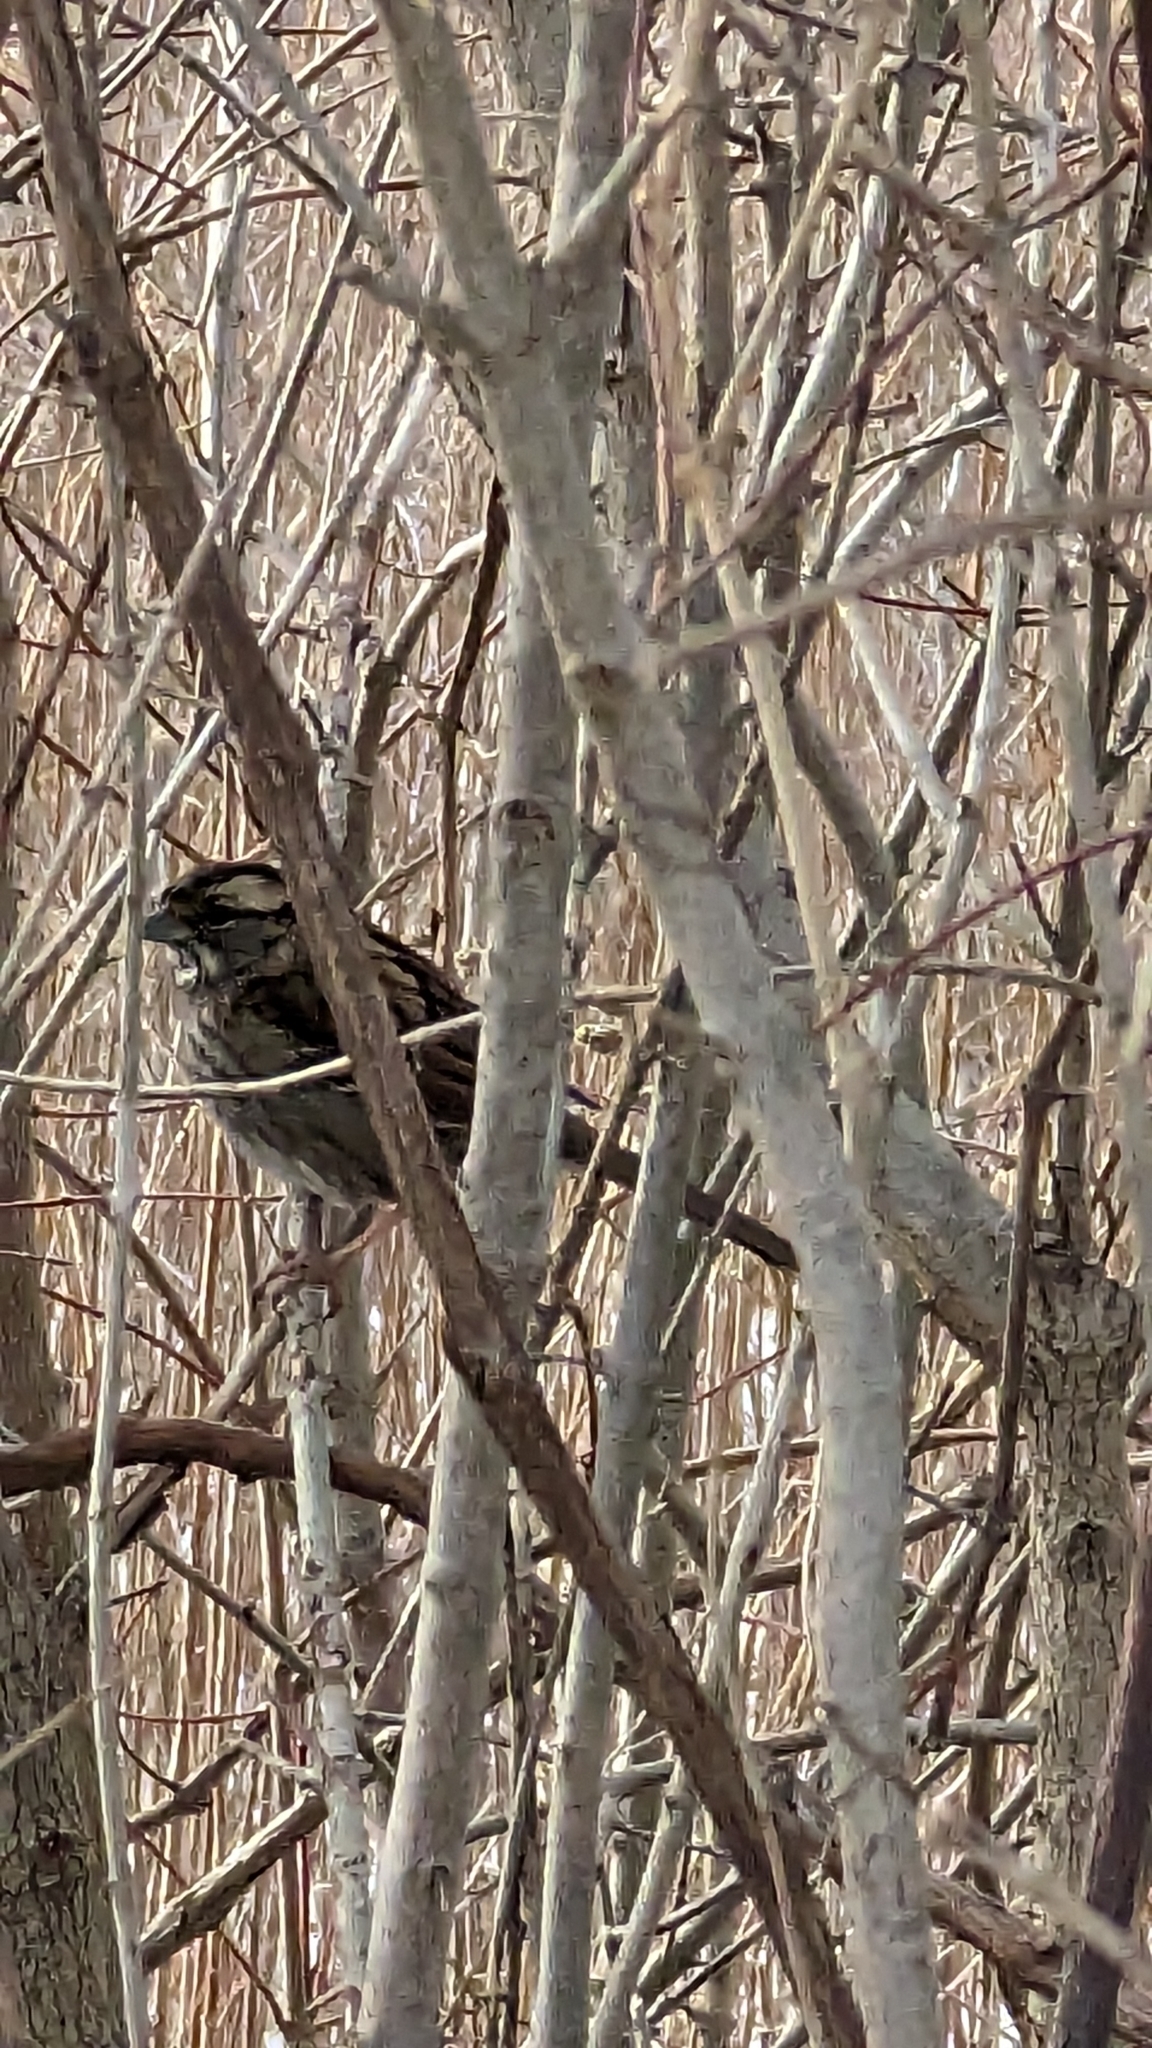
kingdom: Animalia
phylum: Chordata
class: Aves
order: Passeriformes
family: Passerellidae
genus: Zonotrichia
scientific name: Zonotrichia albicollis
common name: White-throated sparrow
